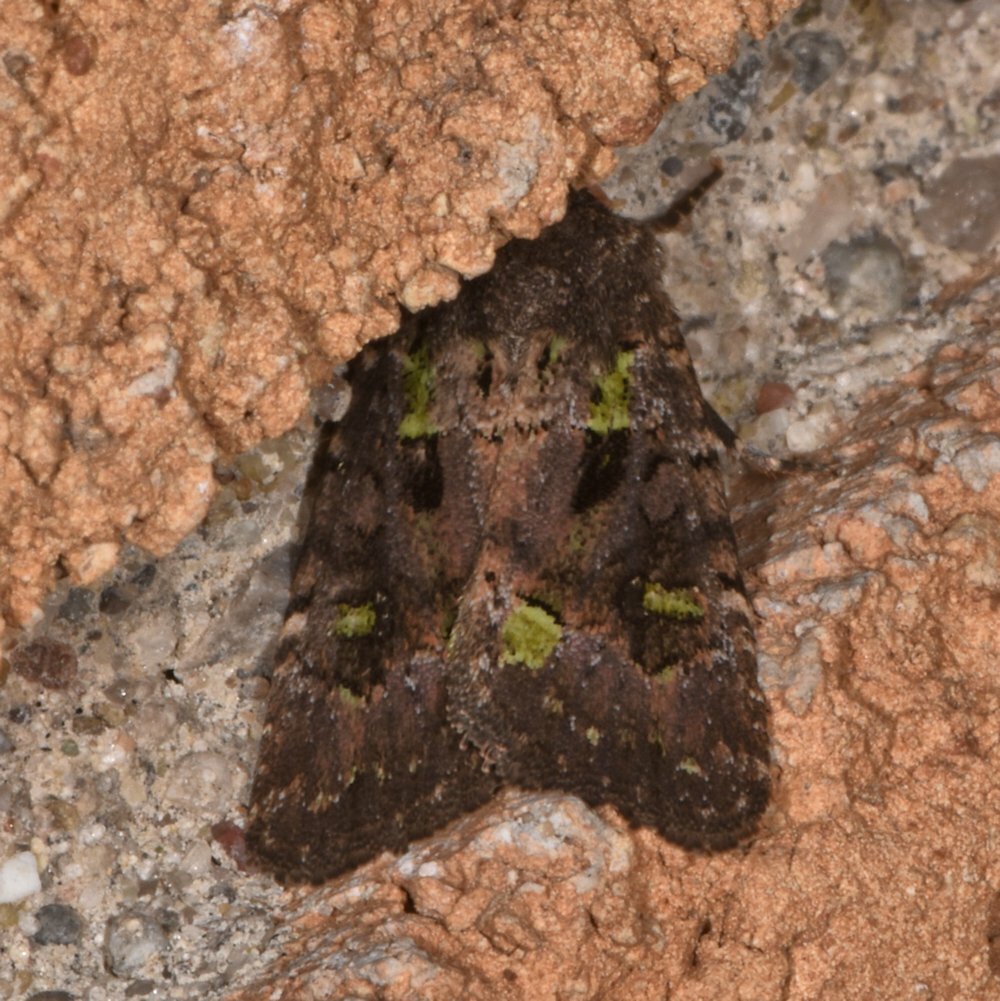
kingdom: Animalia
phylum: Arthropoda
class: Insecta
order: Lepidoptera
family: Noctuidae
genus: Lacinipolia
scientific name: Lacinipolia renigera
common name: Kidney-spotted minor
